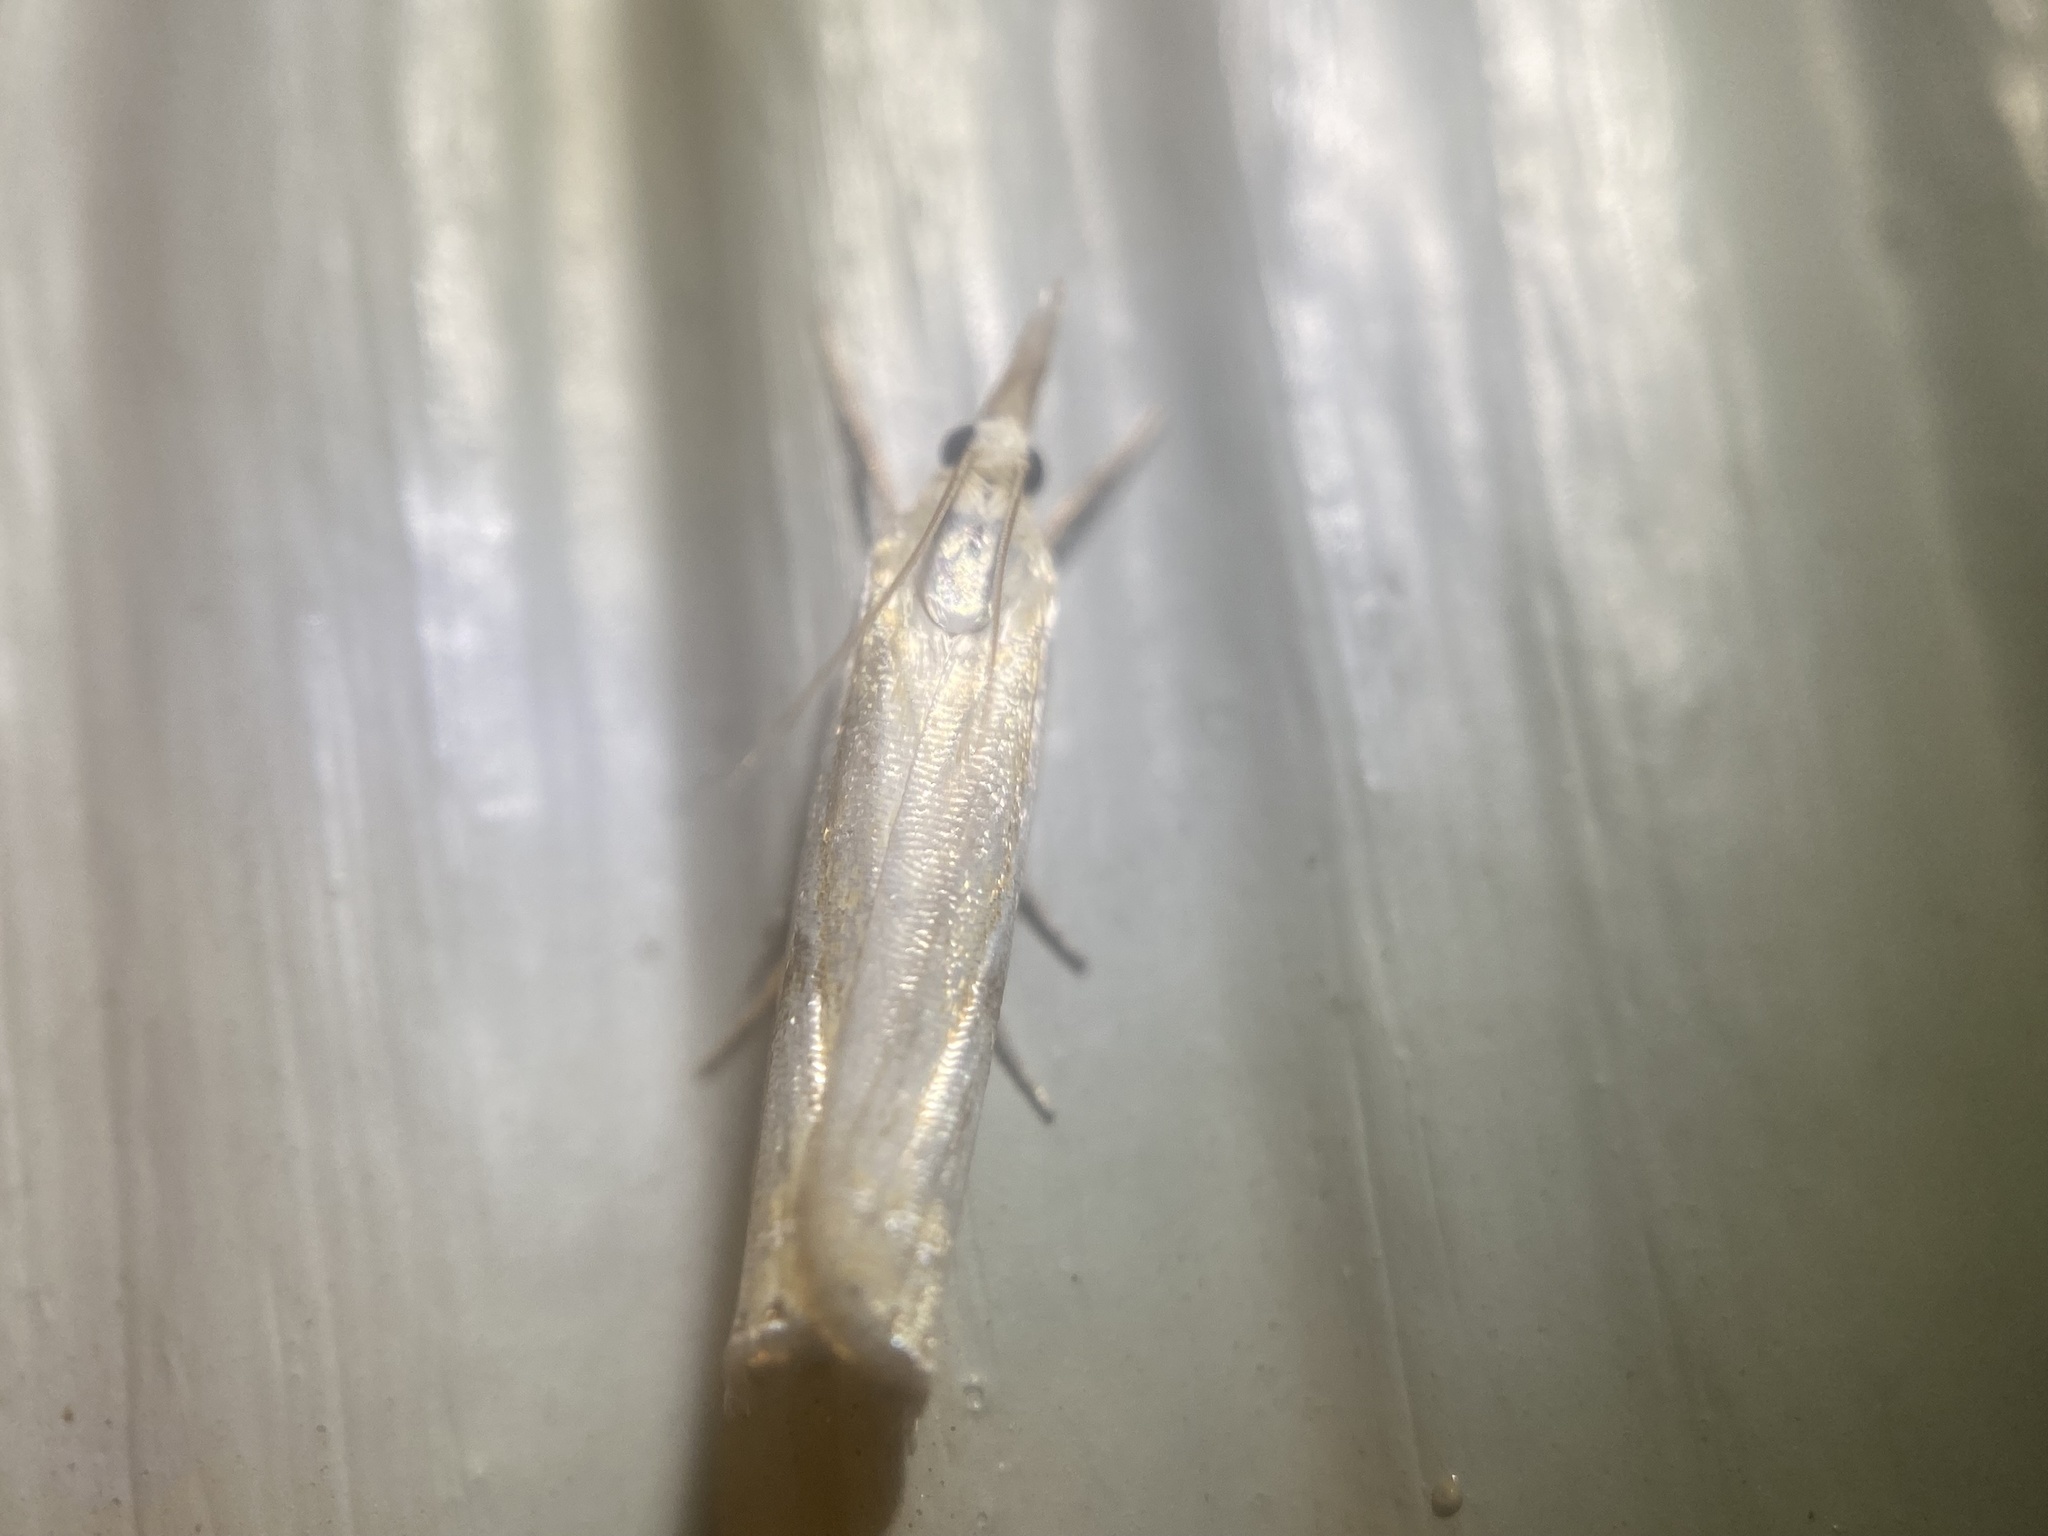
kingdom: Animalia
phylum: Arthropoda
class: Insecta
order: Lepidoptera
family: Crambidae
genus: Crambus
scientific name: Crambus agitatellus
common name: Double-banded grass-veneer
